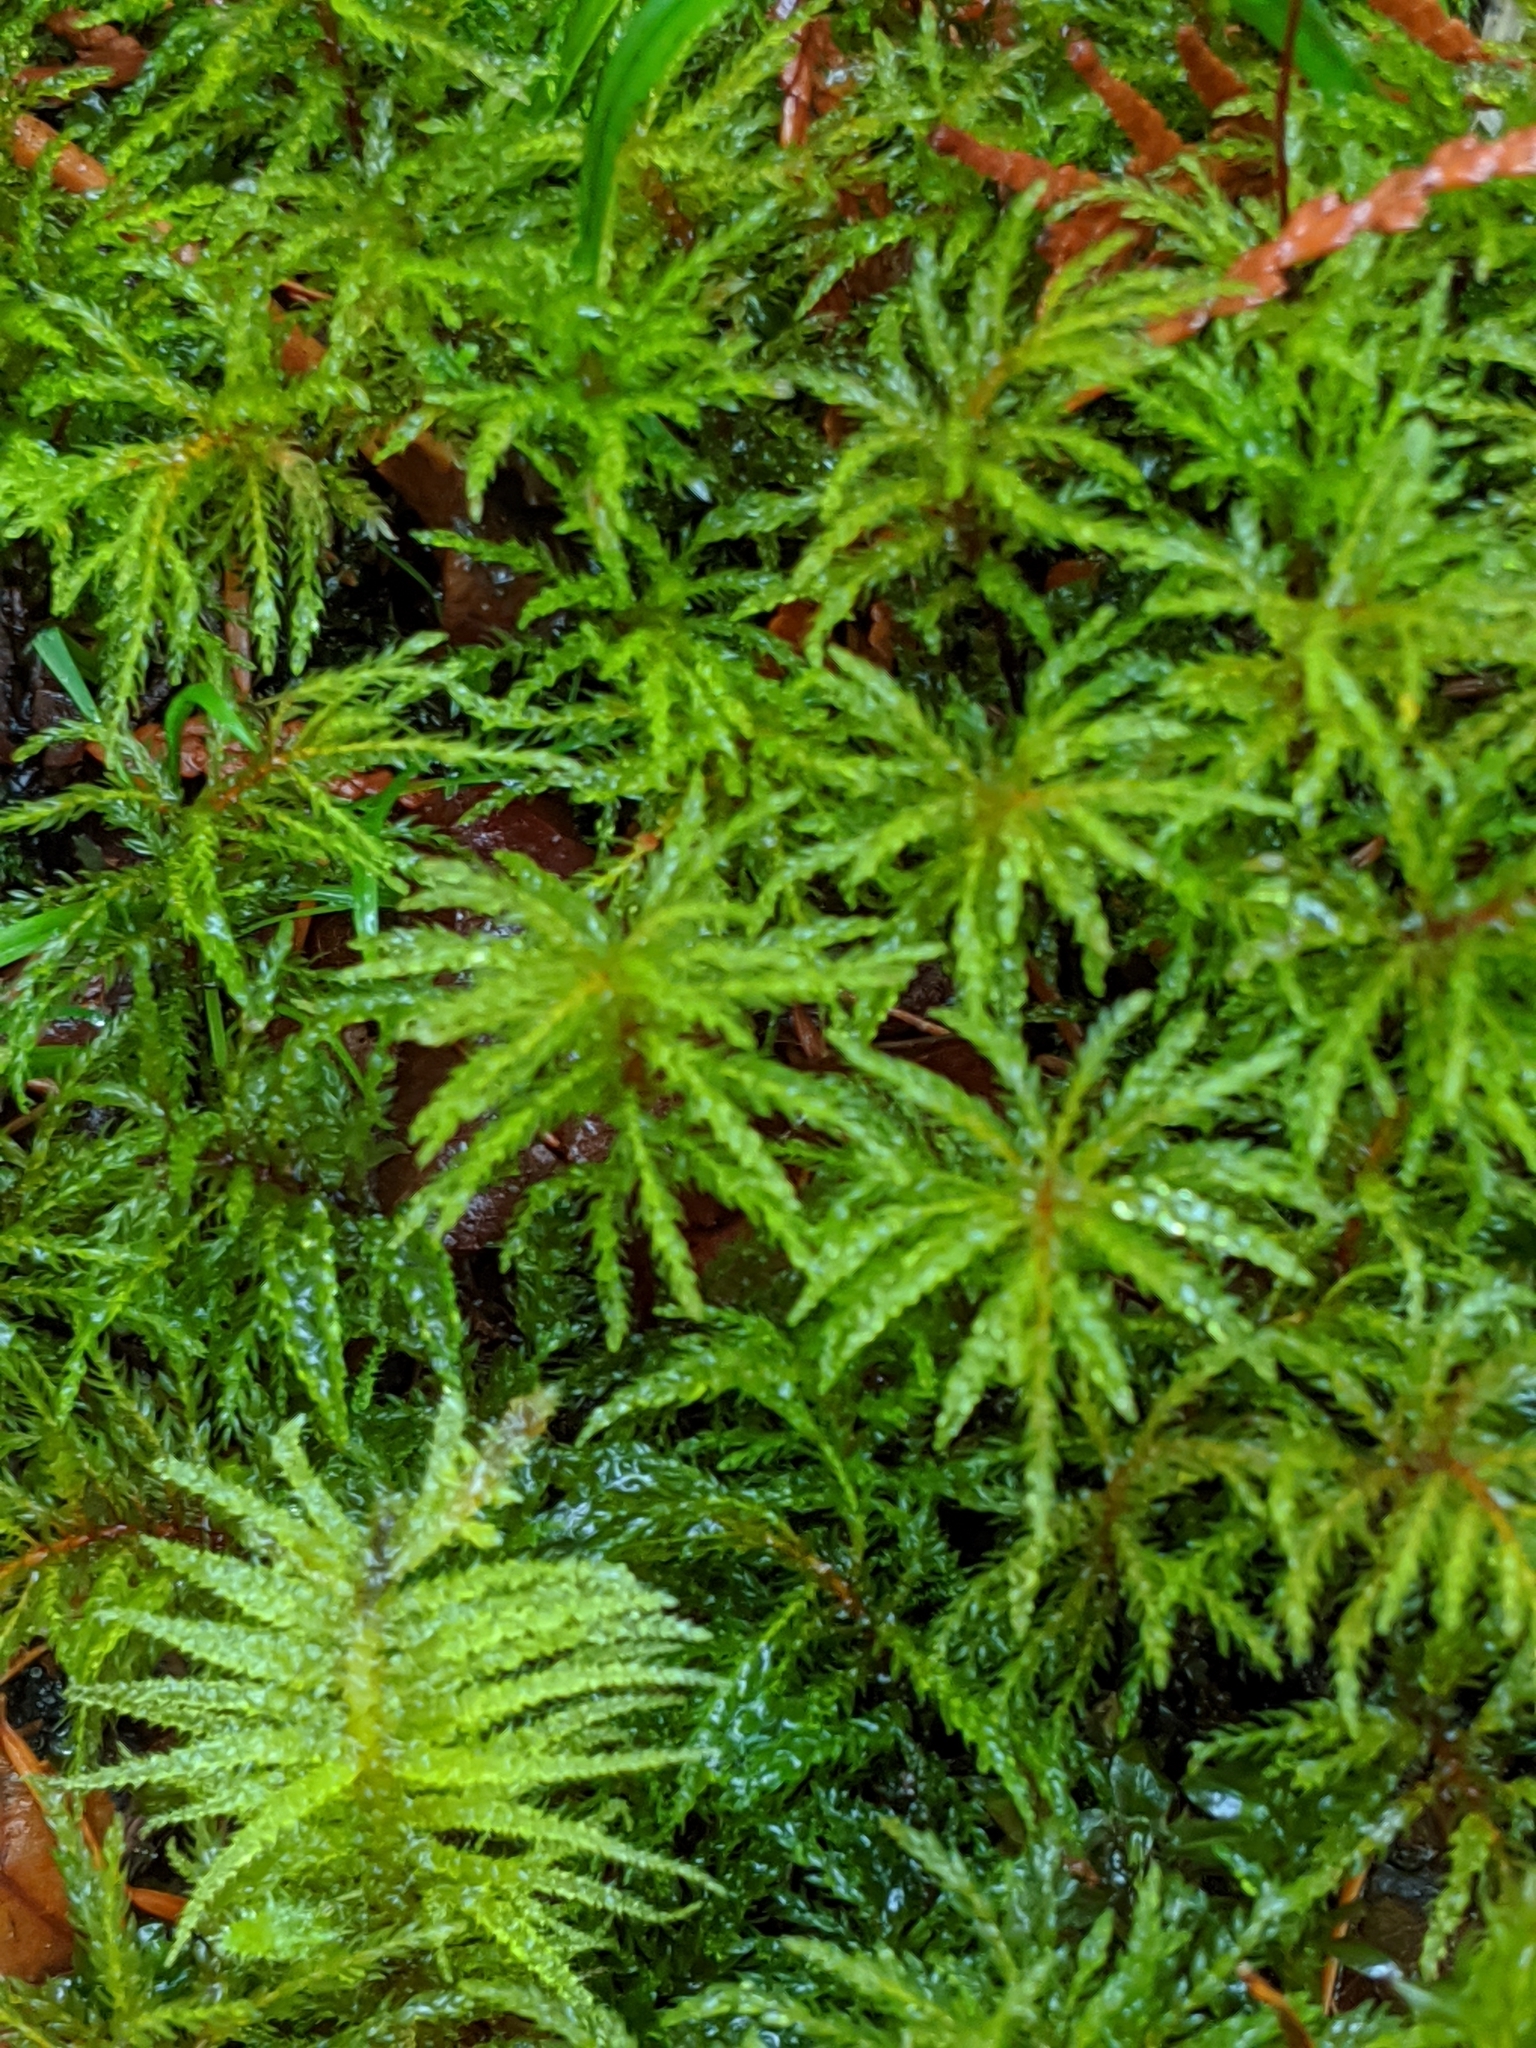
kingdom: Plantae
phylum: Bryophyta
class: Bryopsida
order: Bryales
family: Mniaceae
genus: Leucolepis
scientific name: Leucolepis acanthoneura
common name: Leucolepis umbrella moss
